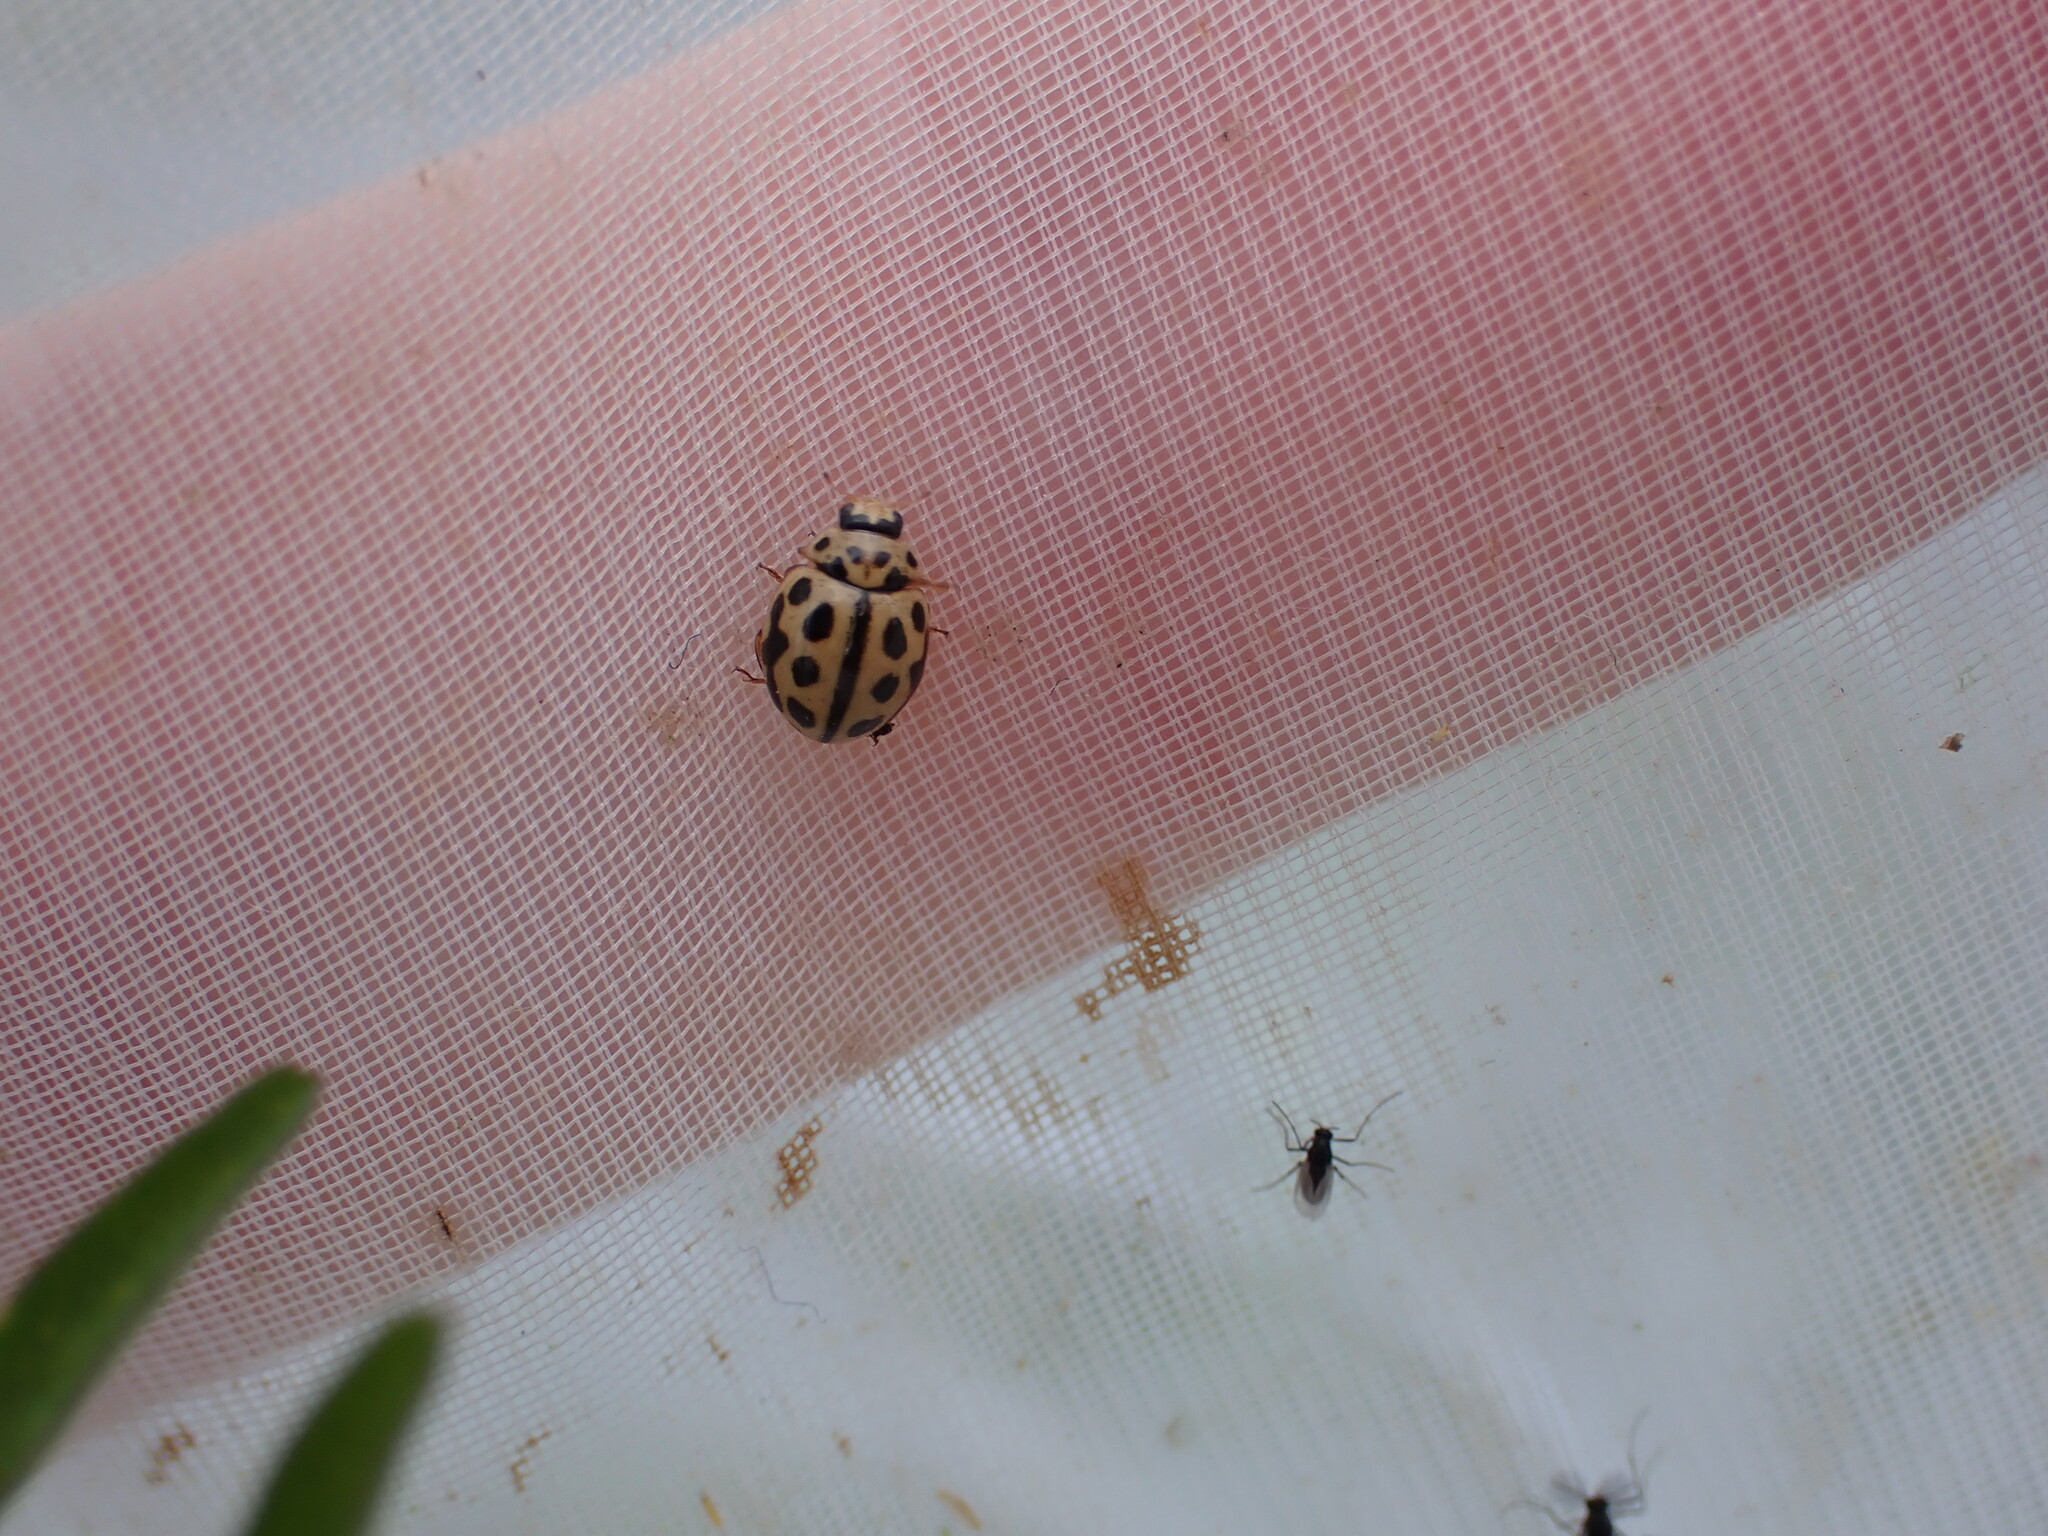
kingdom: Animalia
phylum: Arthropoda
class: Insecta
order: Coleoptera
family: Coccinellidae
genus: Tytthaspis
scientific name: Tytthaspis sedecimpunctata
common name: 16-spot ladybird
